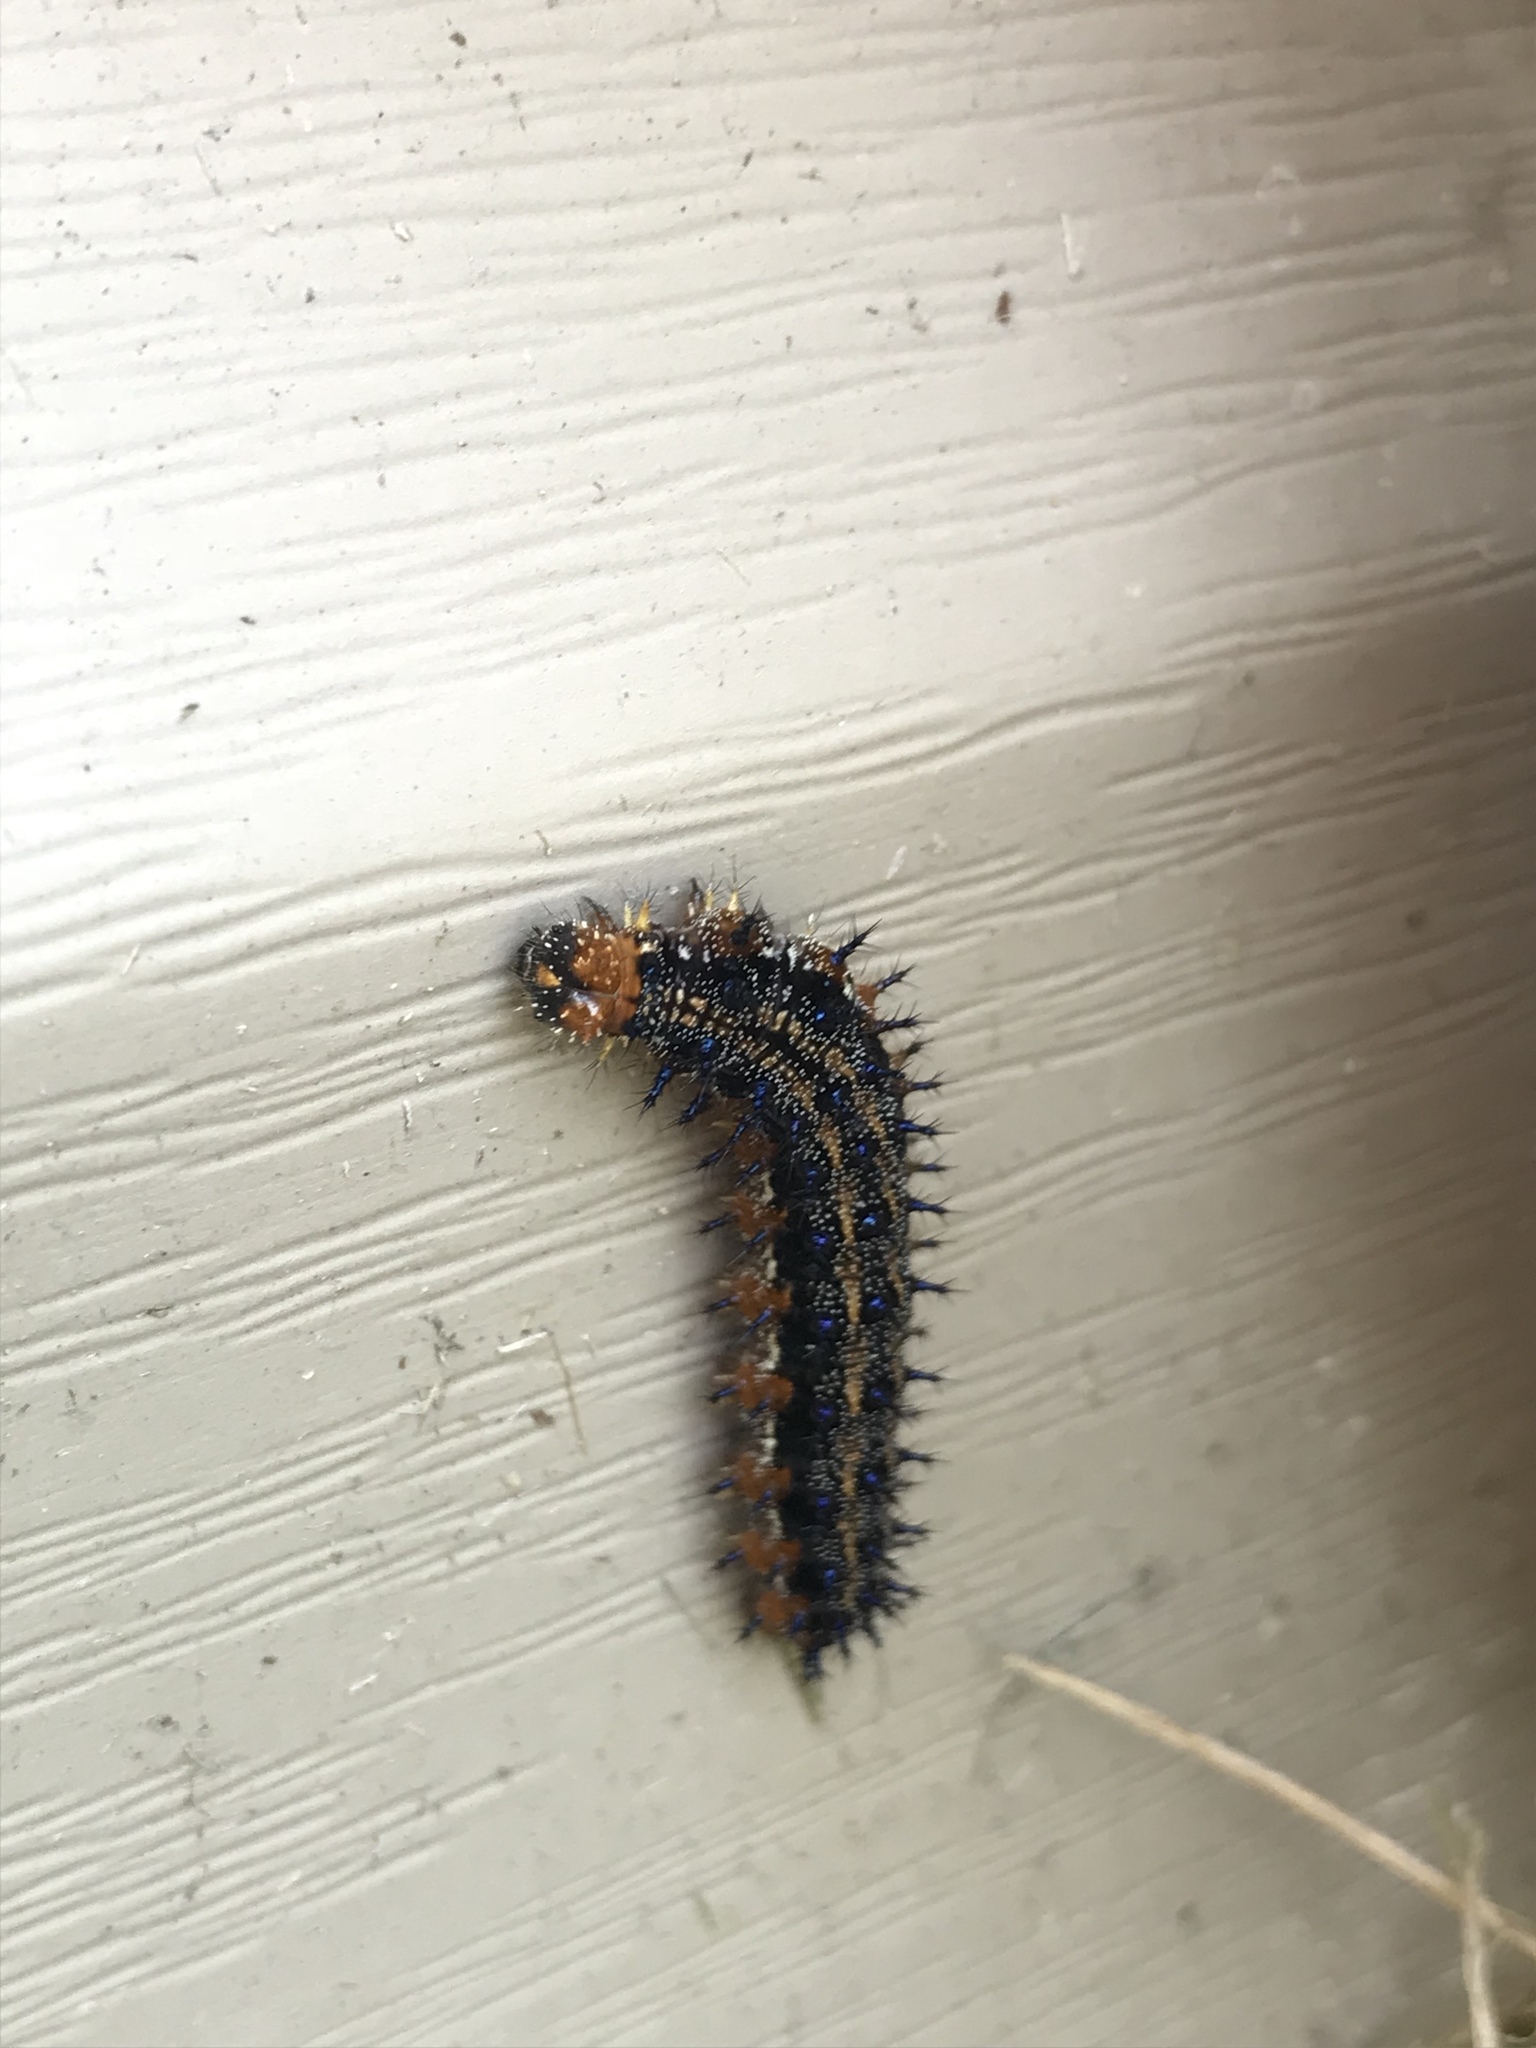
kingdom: Animalia
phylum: Arthropoda
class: Insecta
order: Lepidoptera
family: Nymphalidae
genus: Junonia
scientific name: Junonia coenia
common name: Common buckeye
